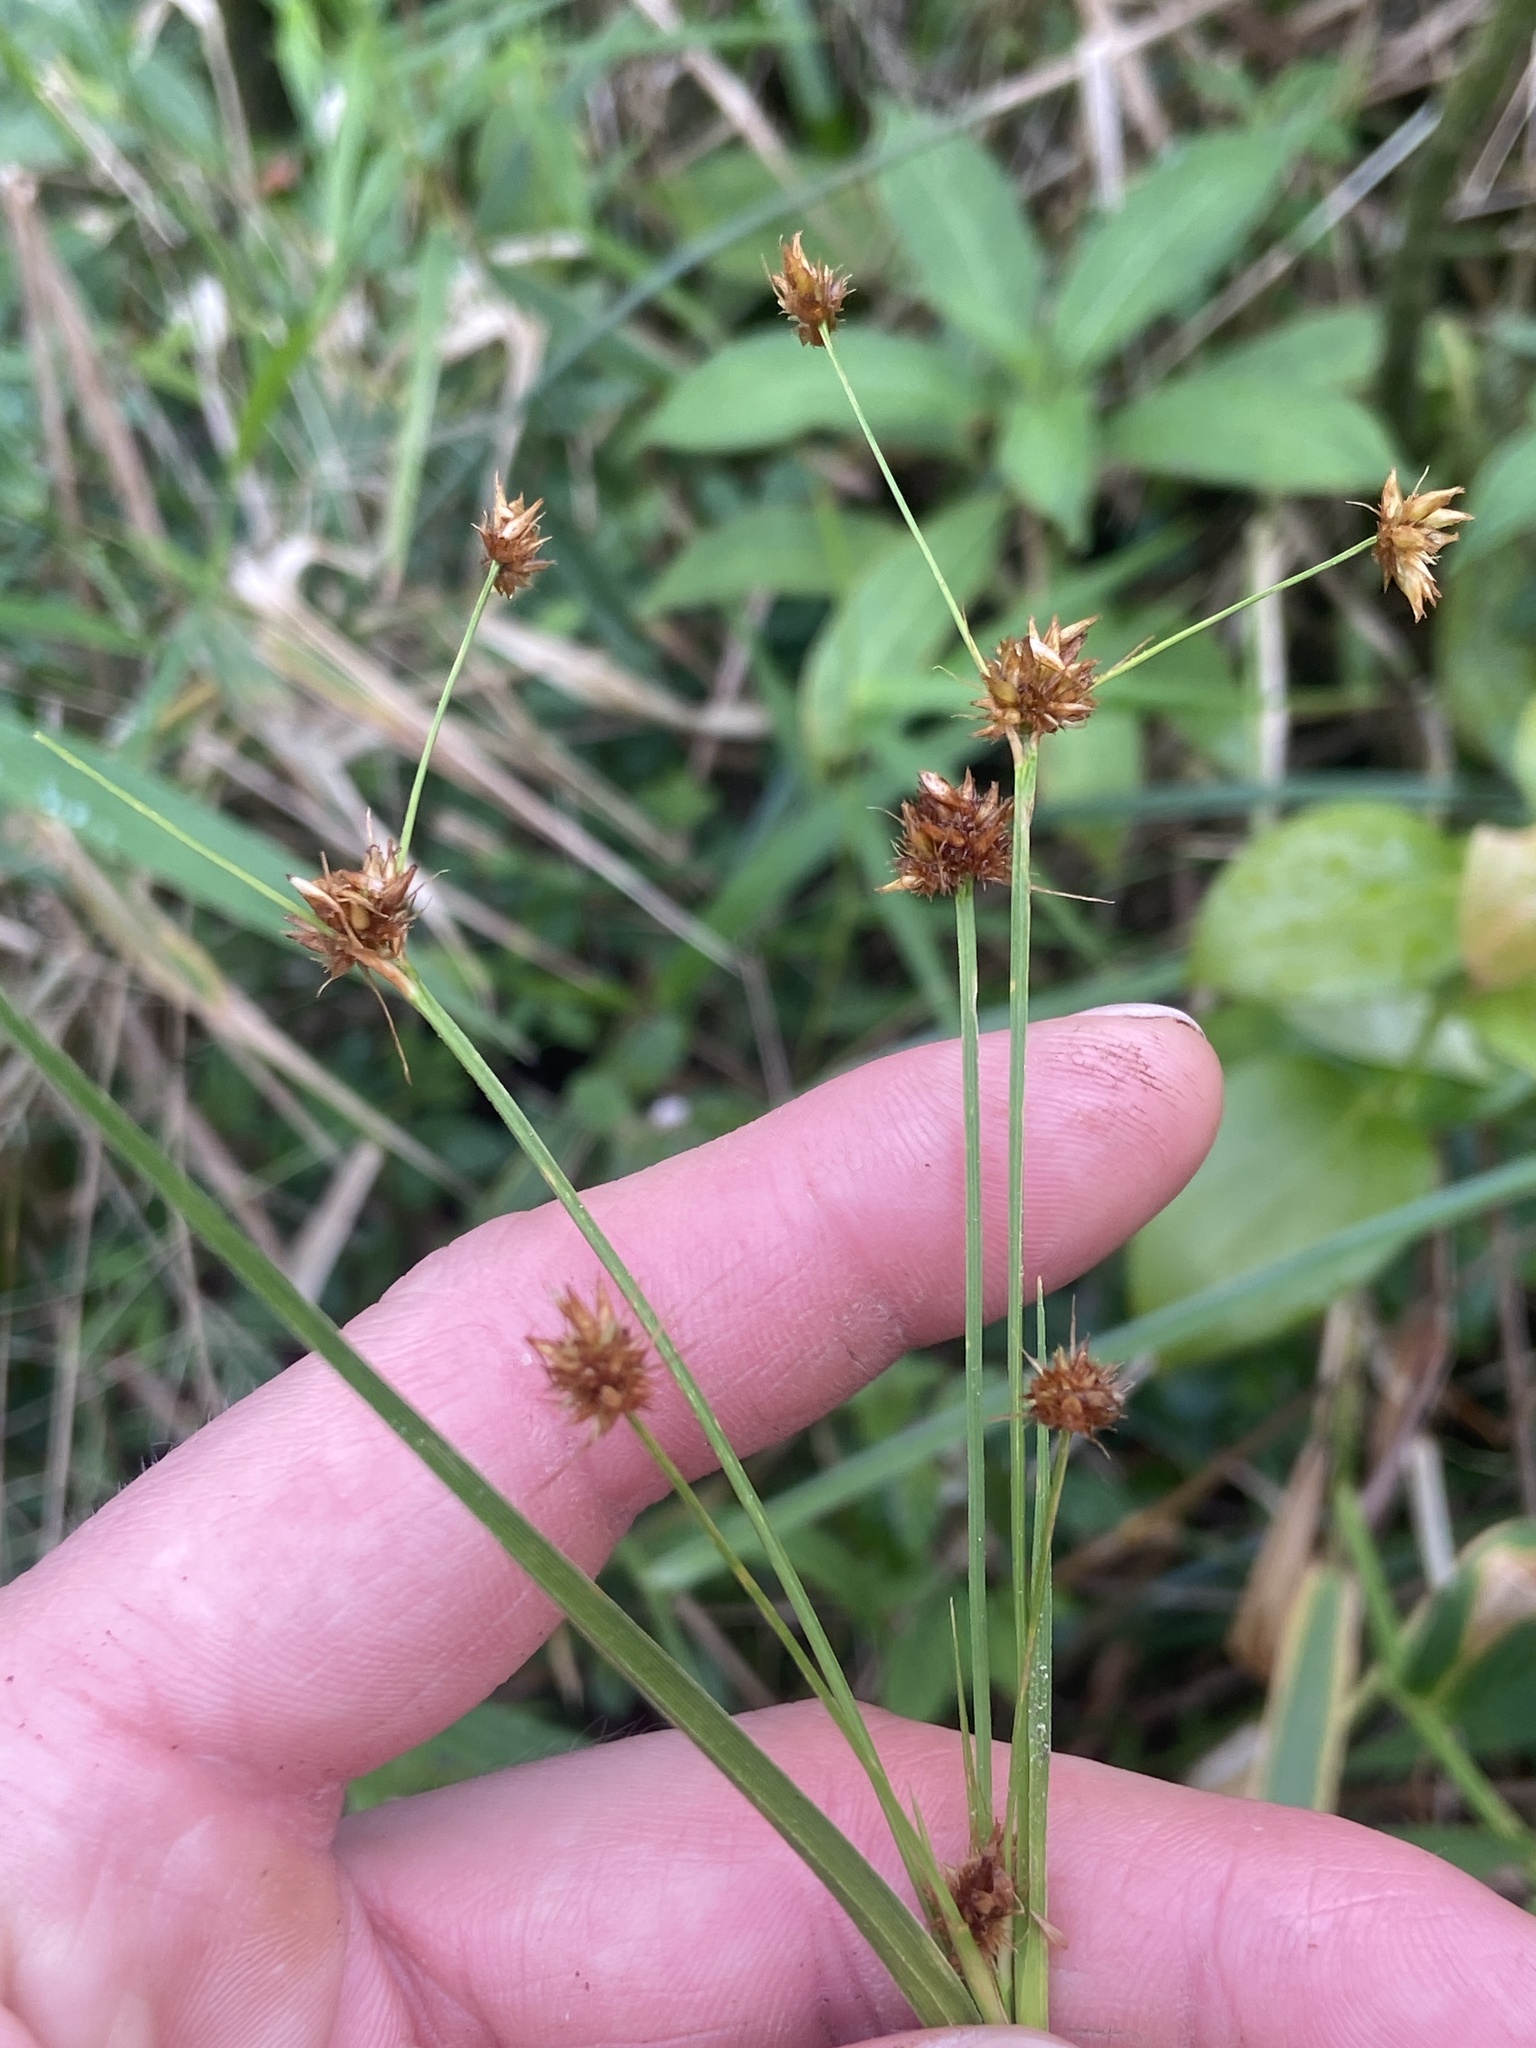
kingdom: Plantae
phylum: Tracheophyta
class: Liliopsida
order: Poales
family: Cyperaceae
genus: Rhynchospora
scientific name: Rhynchospora holoschoenoides
